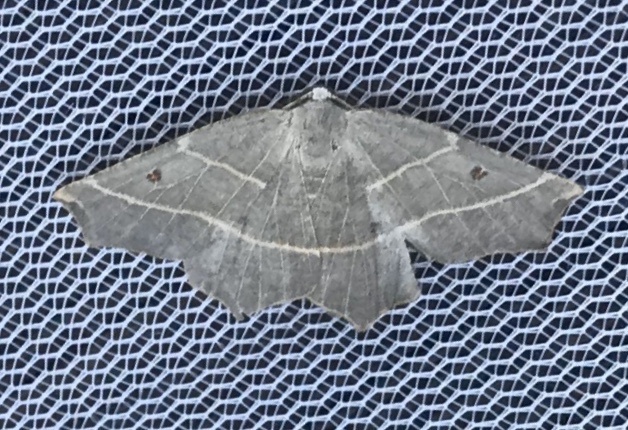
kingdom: Animalia
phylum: Arthropoda
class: Insecta
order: Lepidoptera
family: Geometridae
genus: Metanema
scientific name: Metanema inatomaria
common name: Pale metanema
